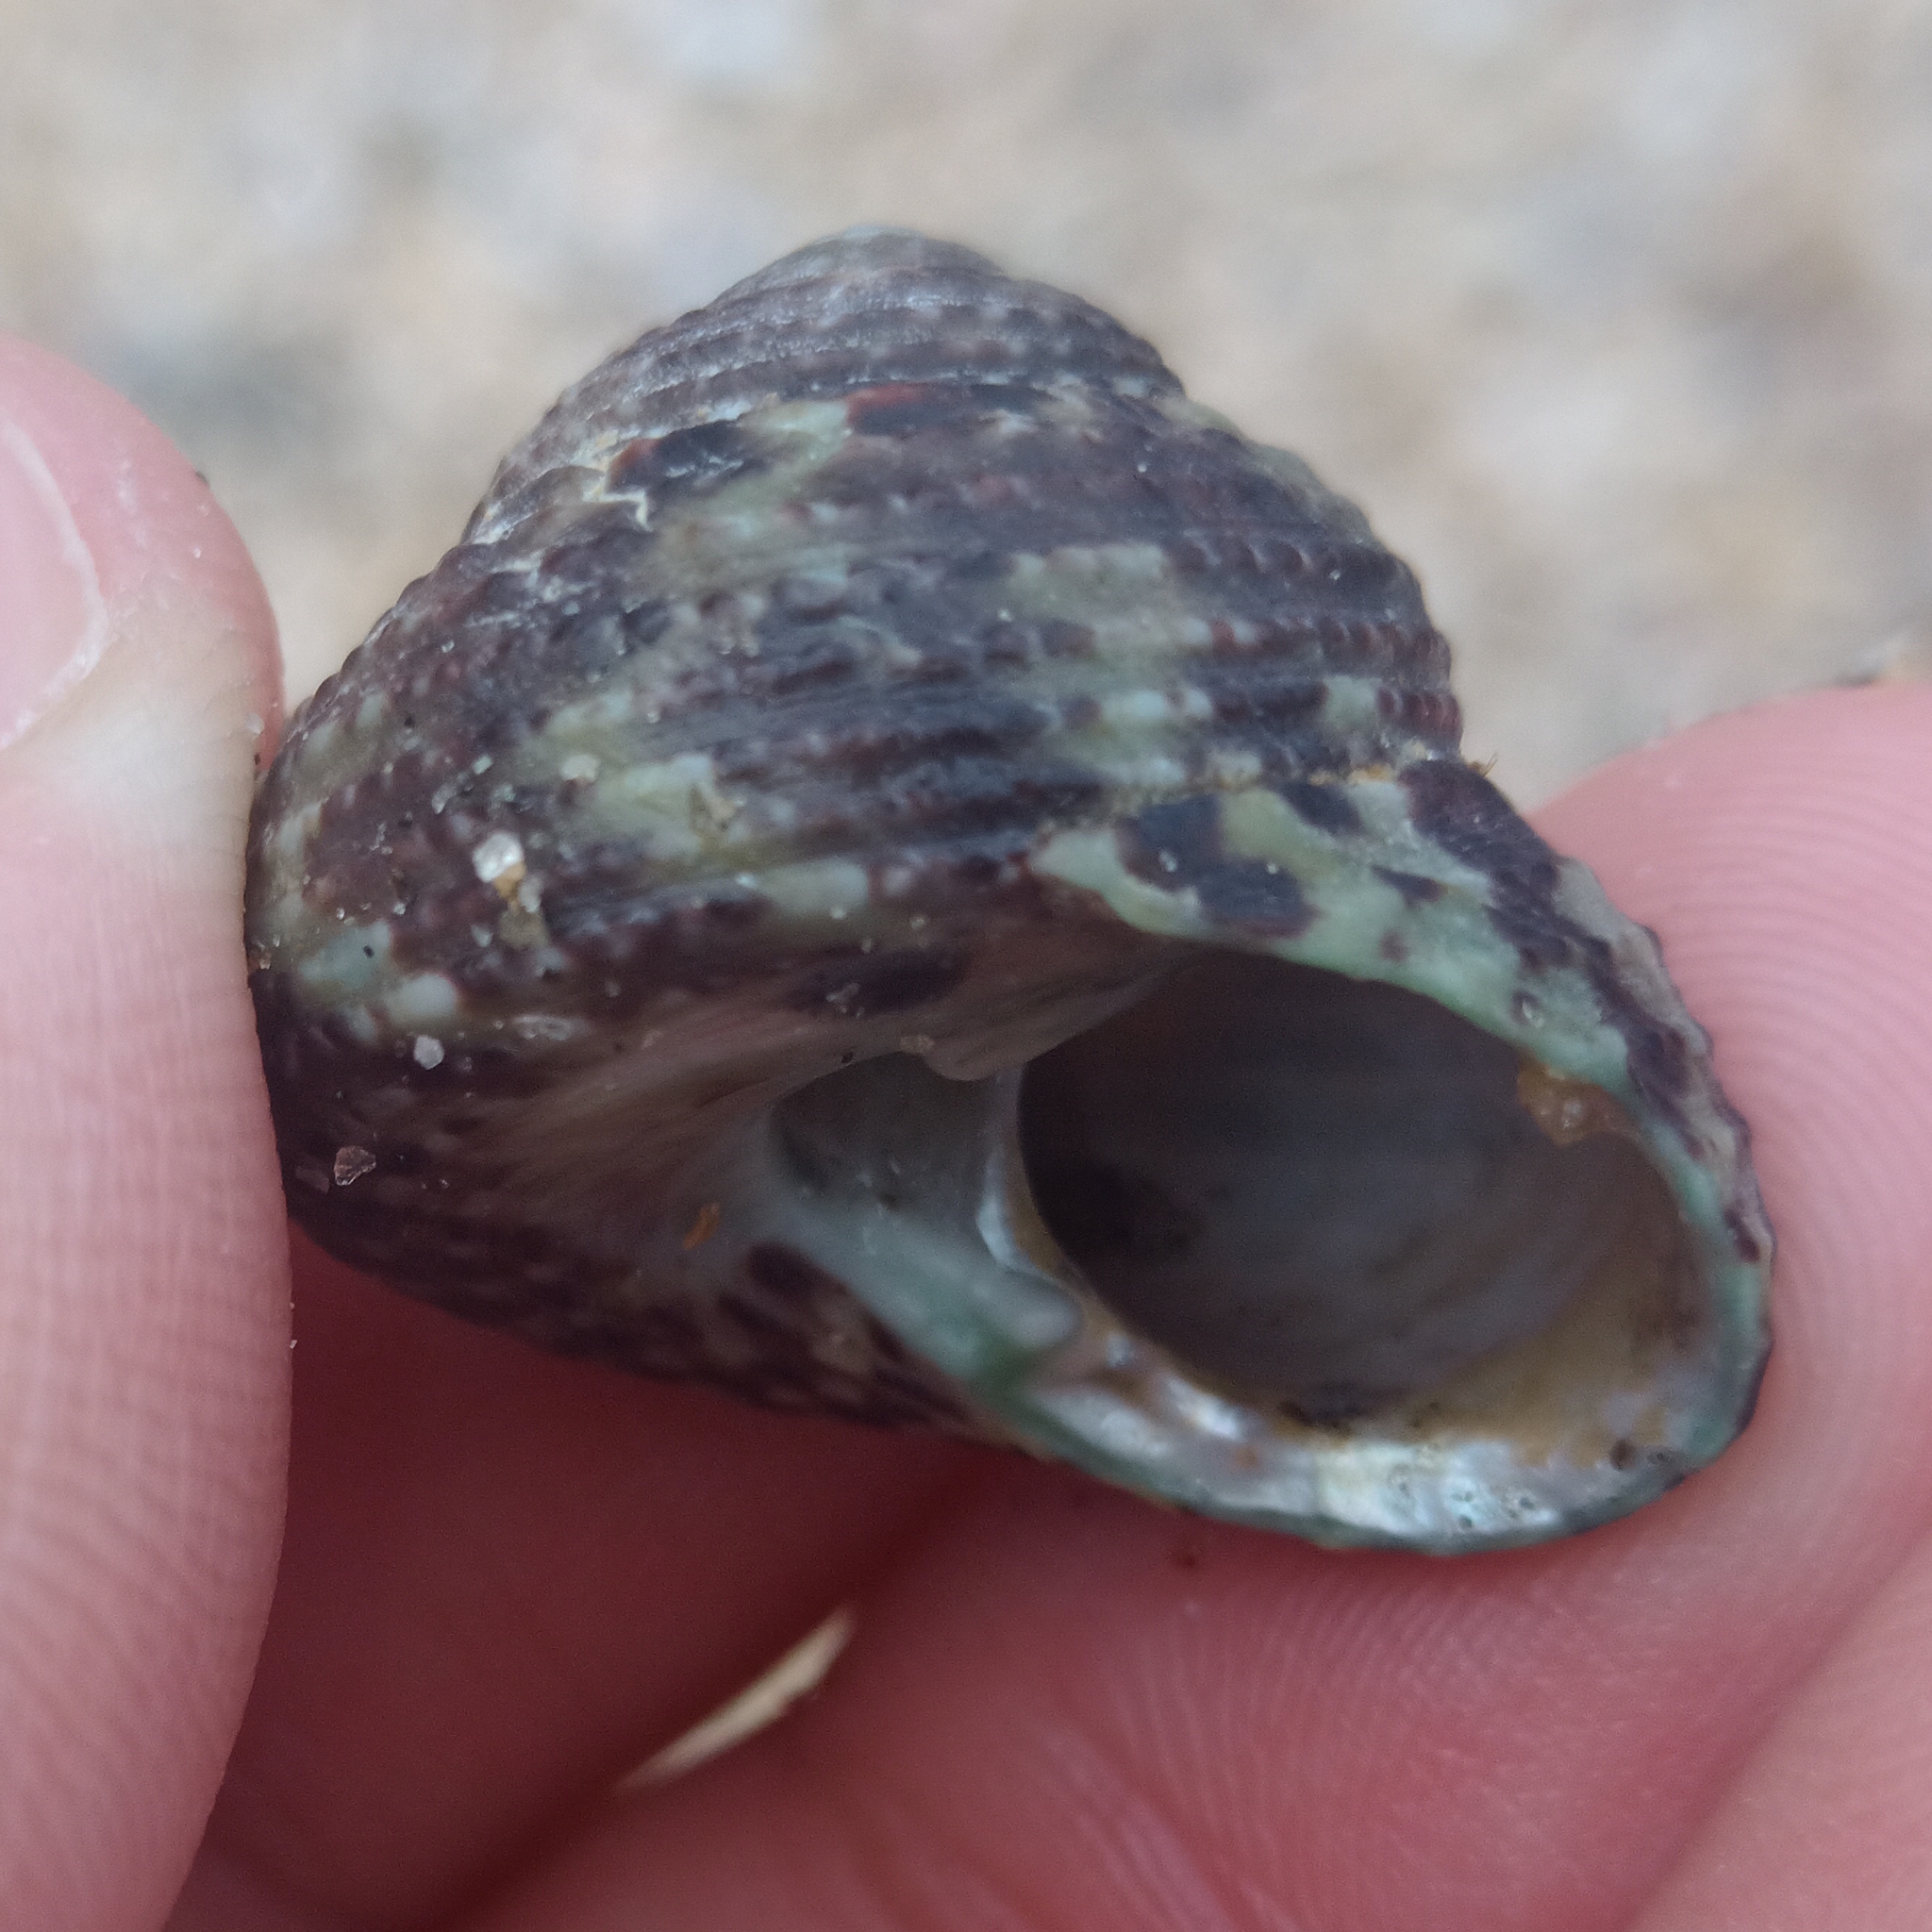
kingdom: Animalia
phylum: Mollusca
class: Gastropoda
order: Trochida
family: Tegulidae
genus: Agathistoma
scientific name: Agathistoma viridulum
